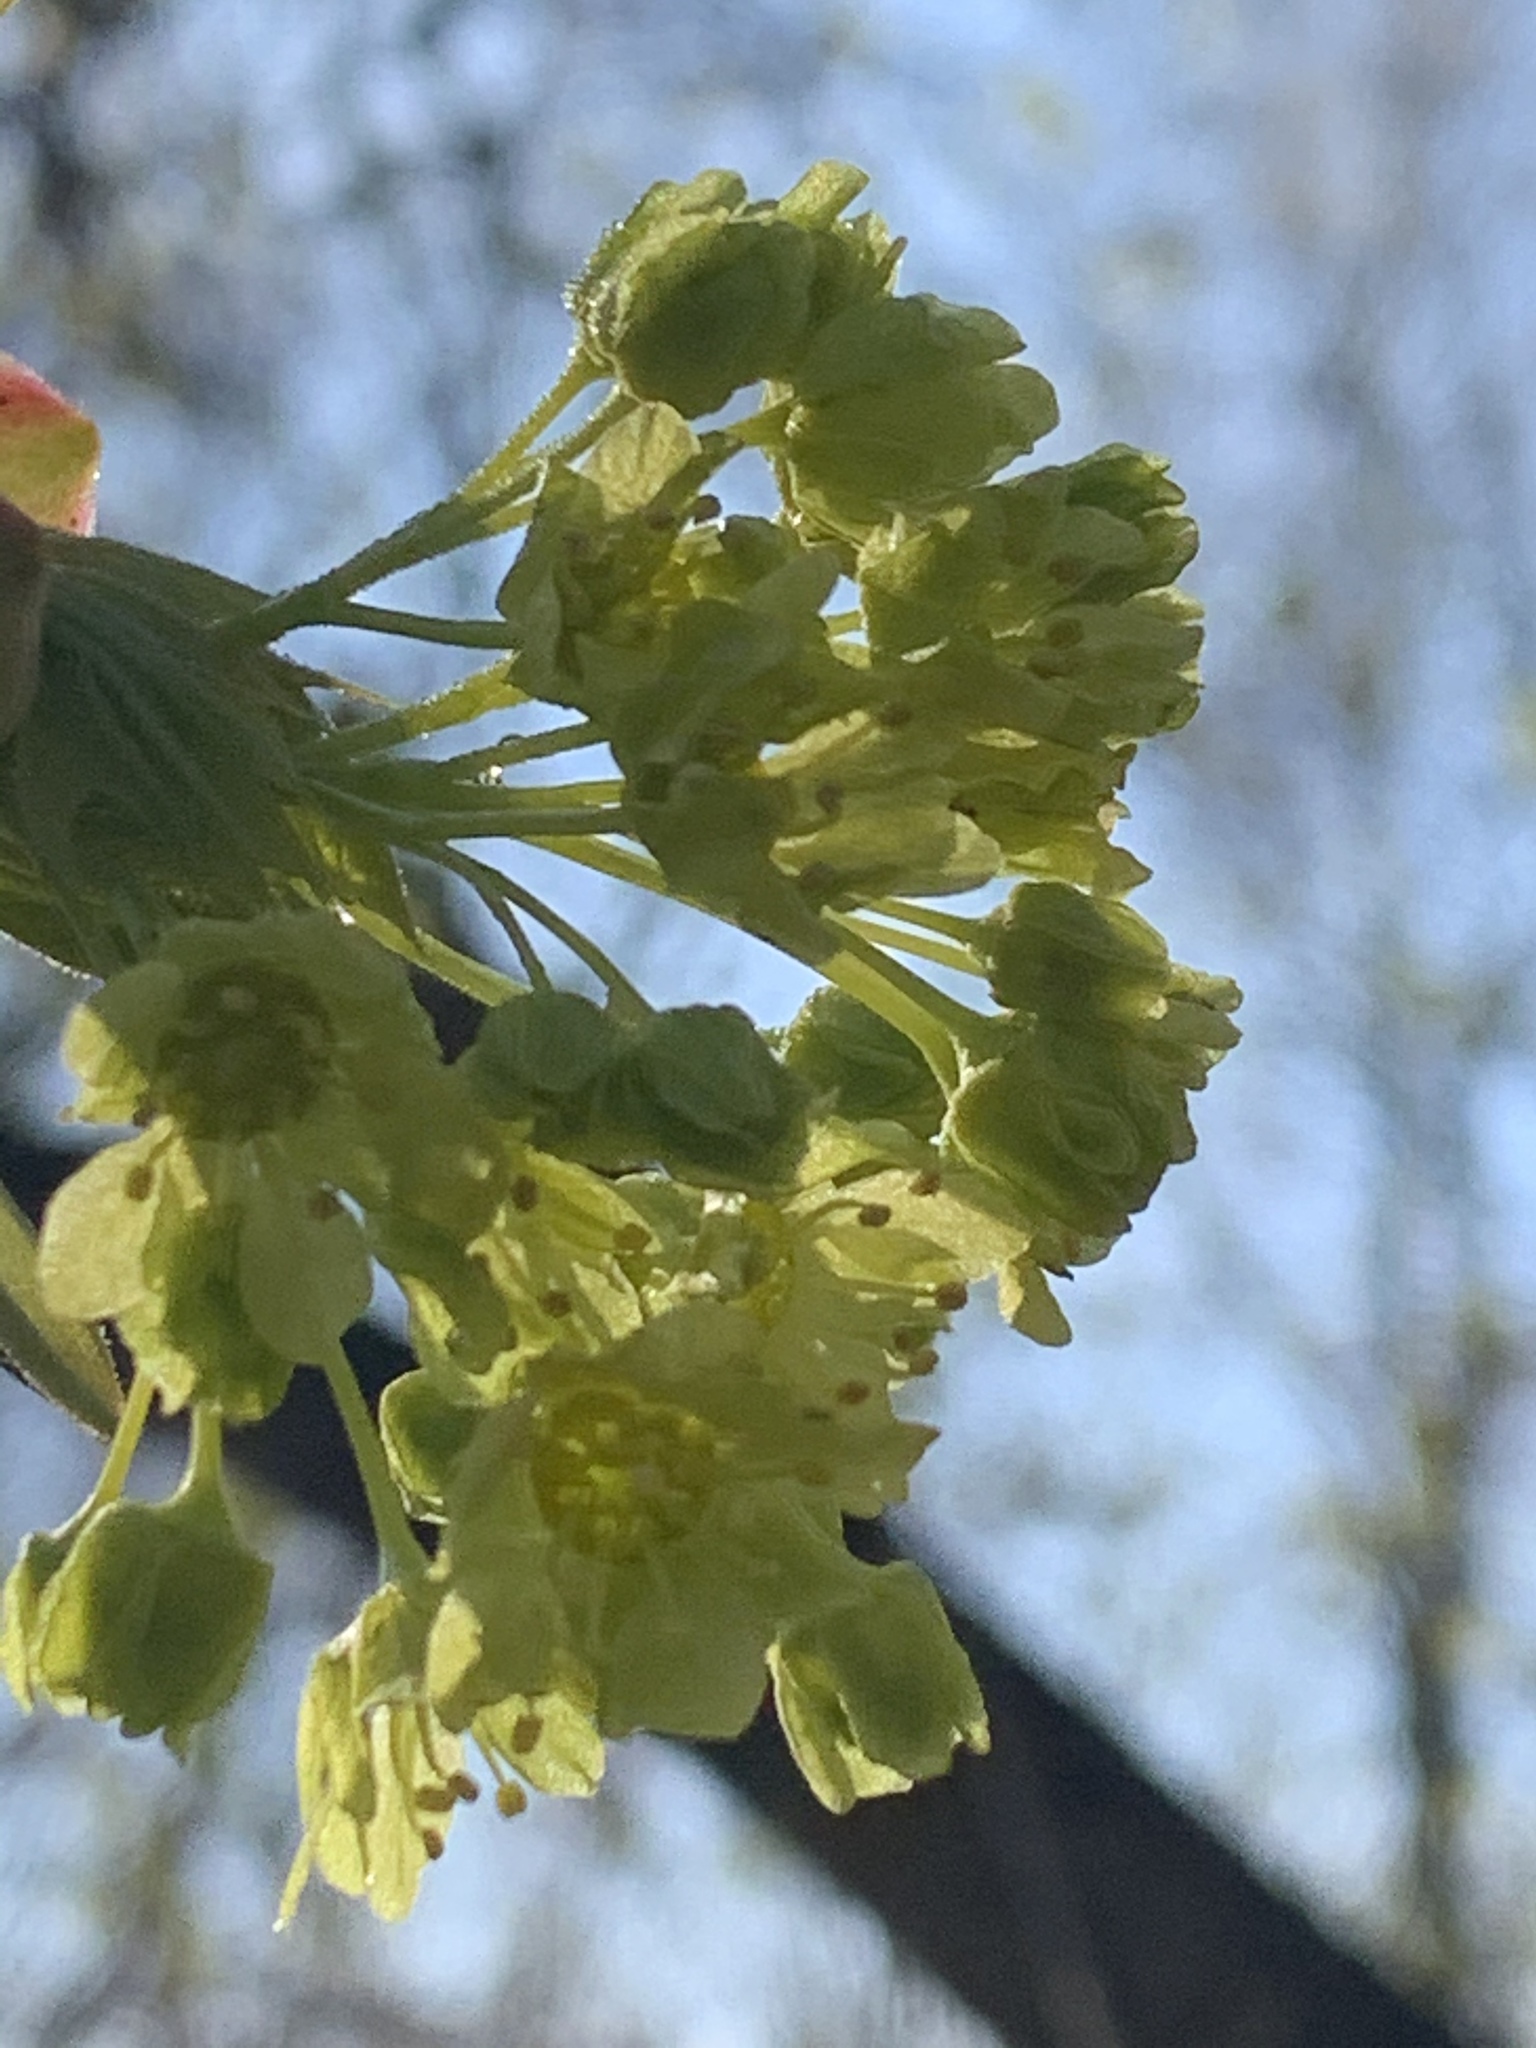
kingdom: Plantae
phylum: Tracheophyta
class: Magnoliopsida
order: Sapindales
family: Sapindaceae
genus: Acer
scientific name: Acer platanoides
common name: Norway maple
